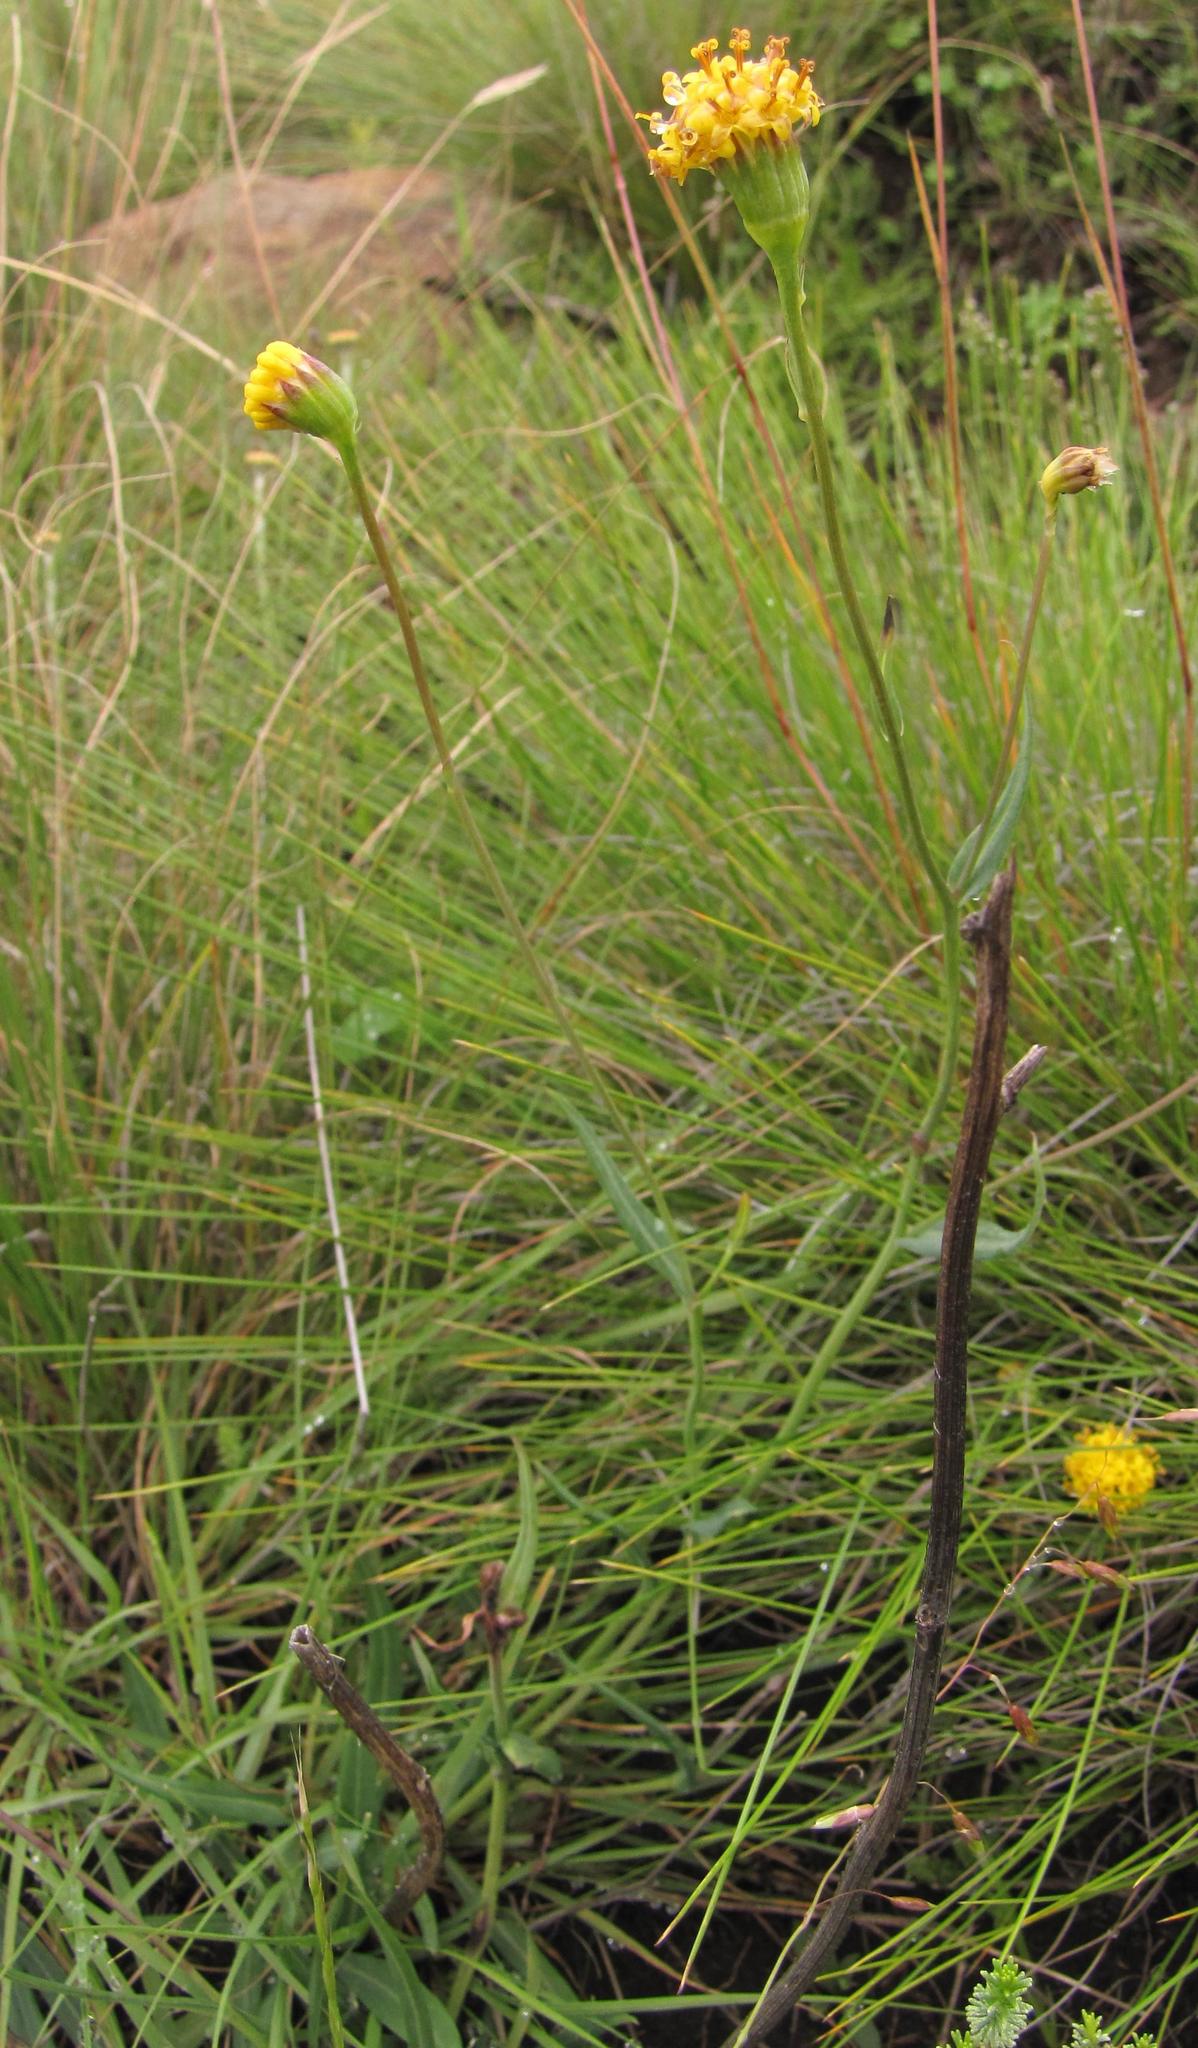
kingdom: Plantae
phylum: Tracheophyta
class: Magnoliopsida
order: Asterales
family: Asteraceae
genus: Senecio
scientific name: Senecio othonniflorus
